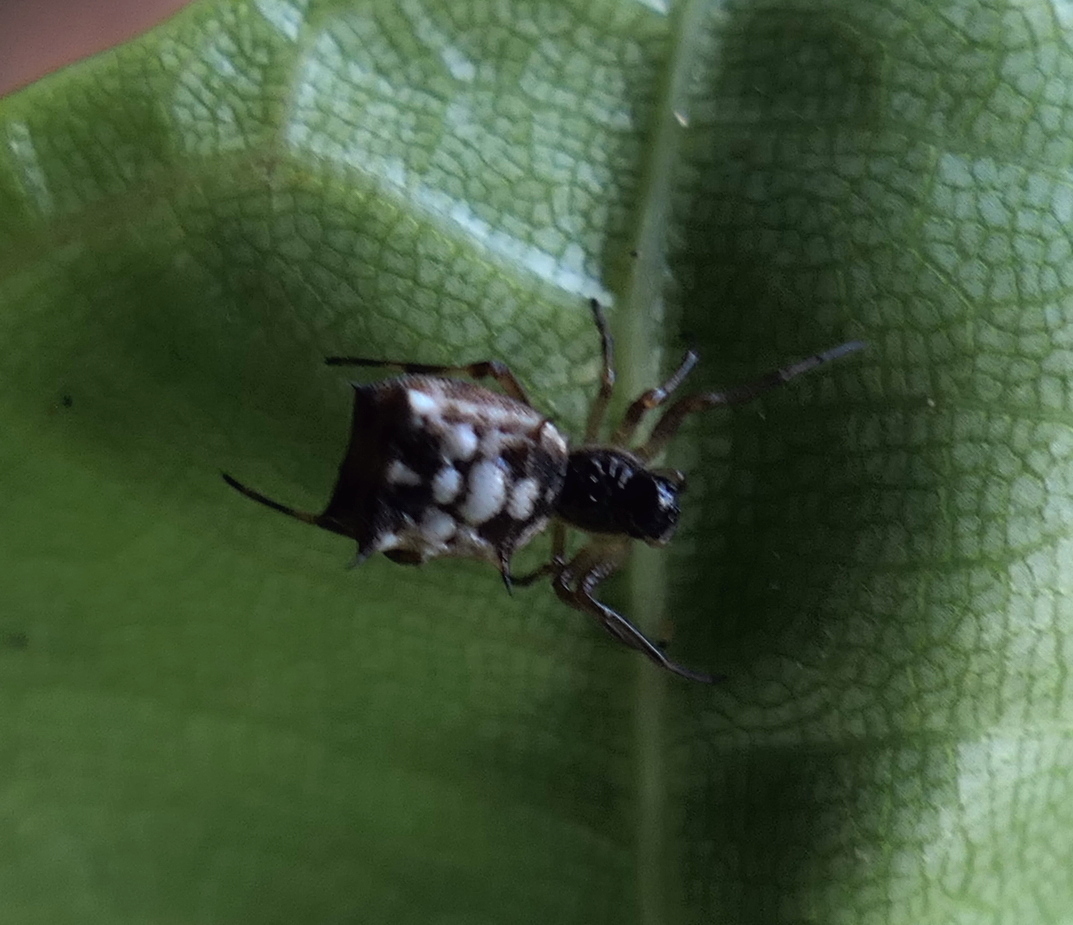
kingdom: Animalia
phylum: Arthropoda
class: Arachnida
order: Araneae
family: Araneidae
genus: Micrathena
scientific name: Micrathena picta
